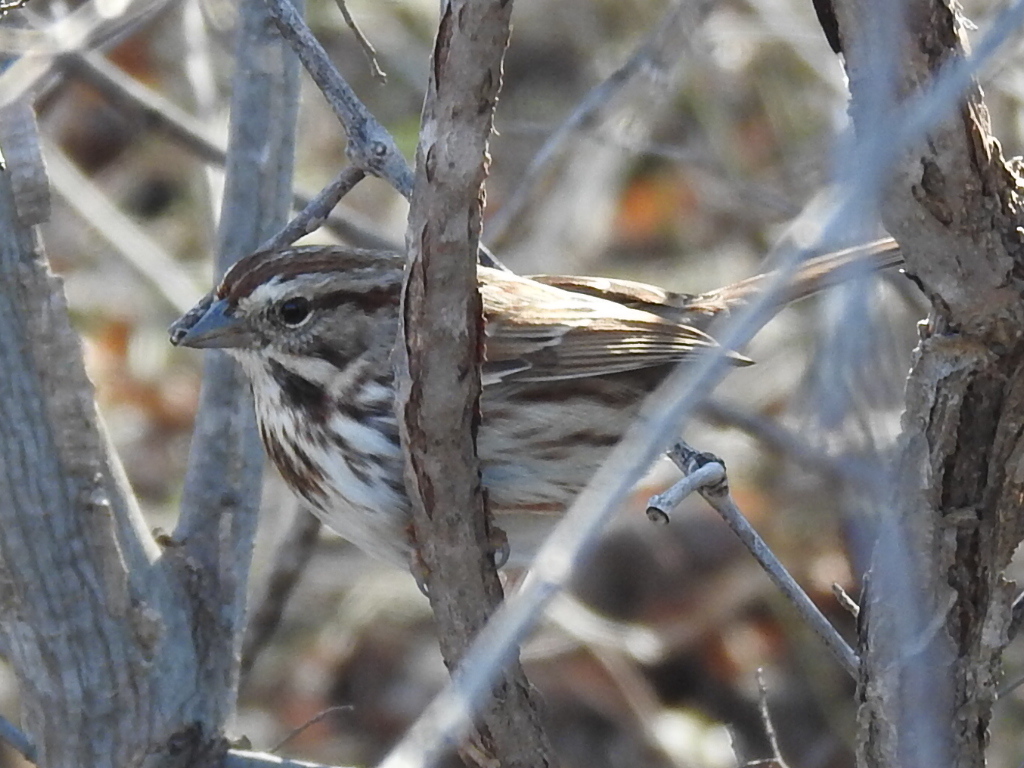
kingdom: Animalia
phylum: Chordata
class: Aves
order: Passeriformes
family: Passerellidae
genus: Melospiza
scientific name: Melospiza melodia
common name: Song sparrow
